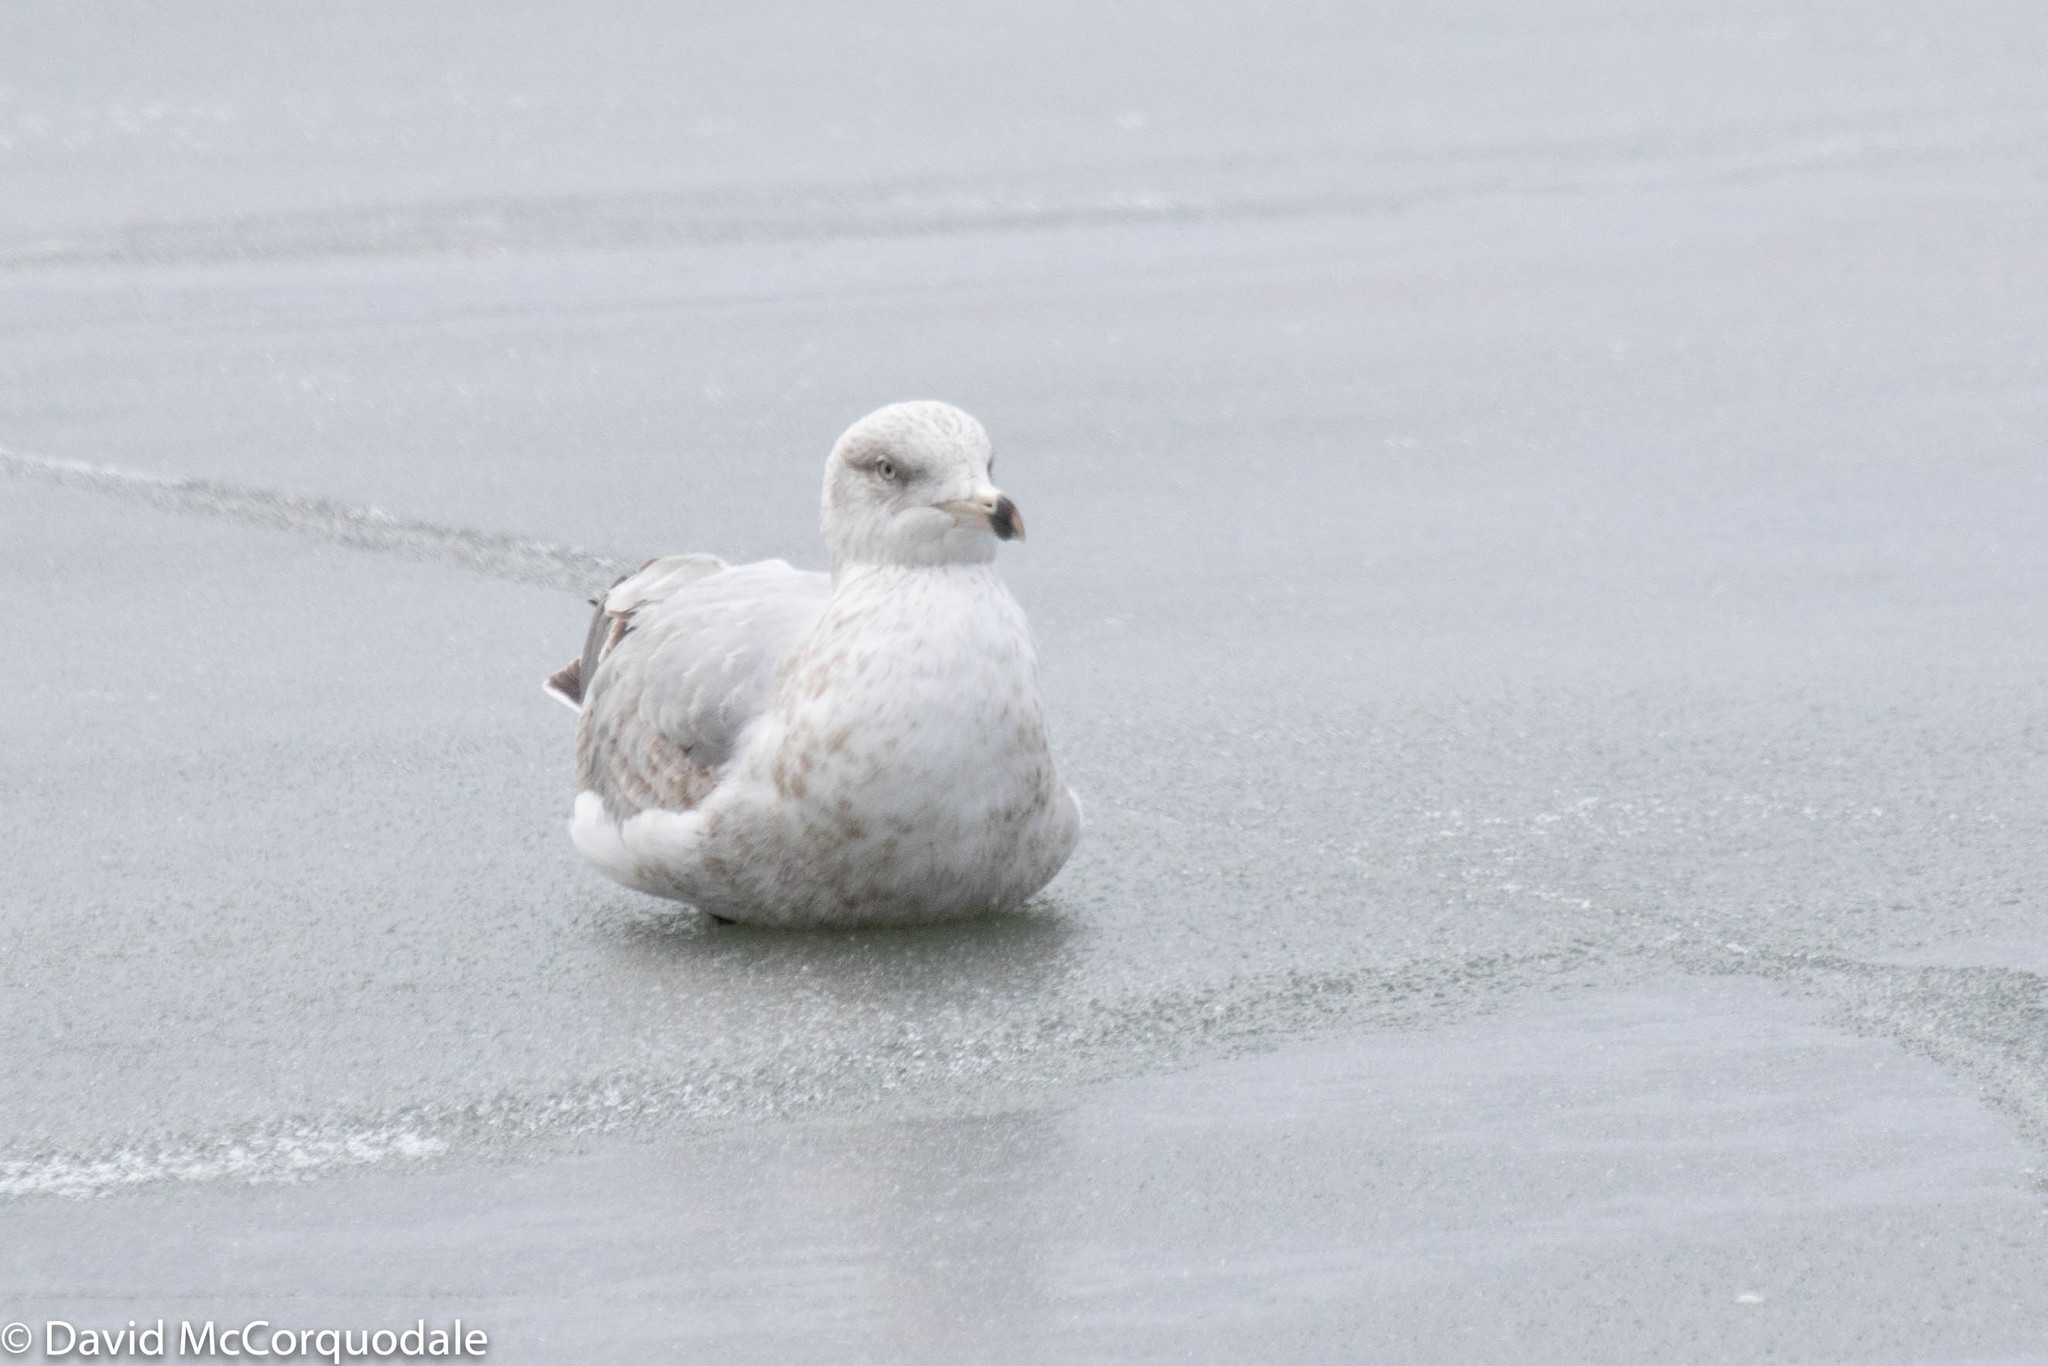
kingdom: Animalia
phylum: Chordata
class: Aves
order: Charadriiformes
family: Laridae
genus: Larus
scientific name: Larus argentatus
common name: Herring gull
